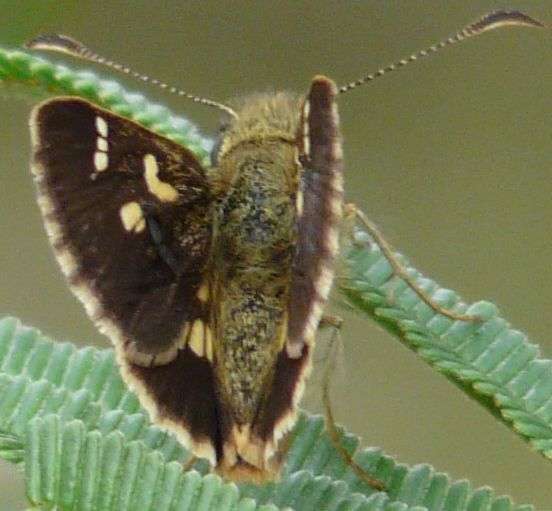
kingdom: Animalia
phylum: Arthropoda
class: Insecta
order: Lepidoptera
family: Hesperiidae
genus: Dispar
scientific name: Dispar compacta
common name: Barred skipper
